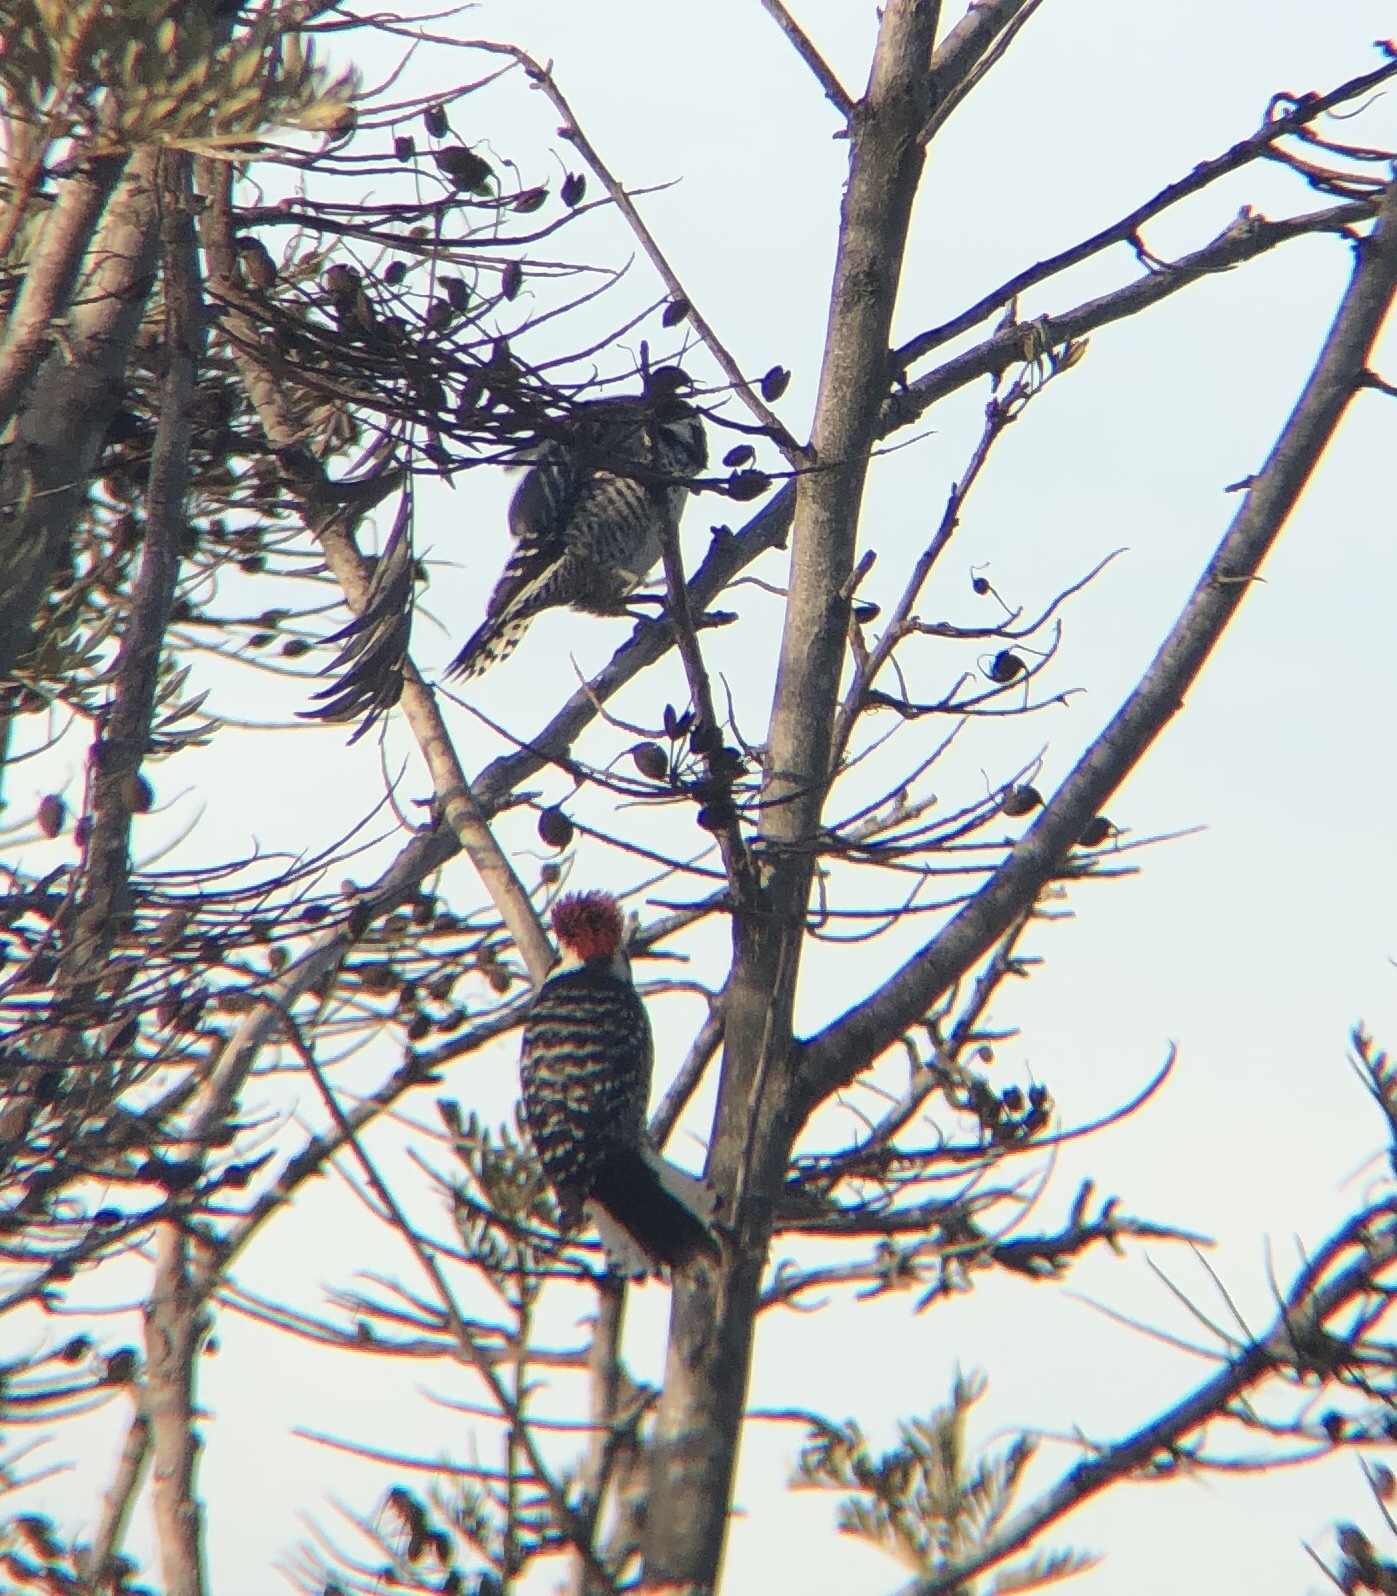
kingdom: Animalia
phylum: Chordata
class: Aves
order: Piciformes
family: Picidae
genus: Dryobates
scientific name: Dryobates nuttallii
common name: Nuttall's woodpecker
